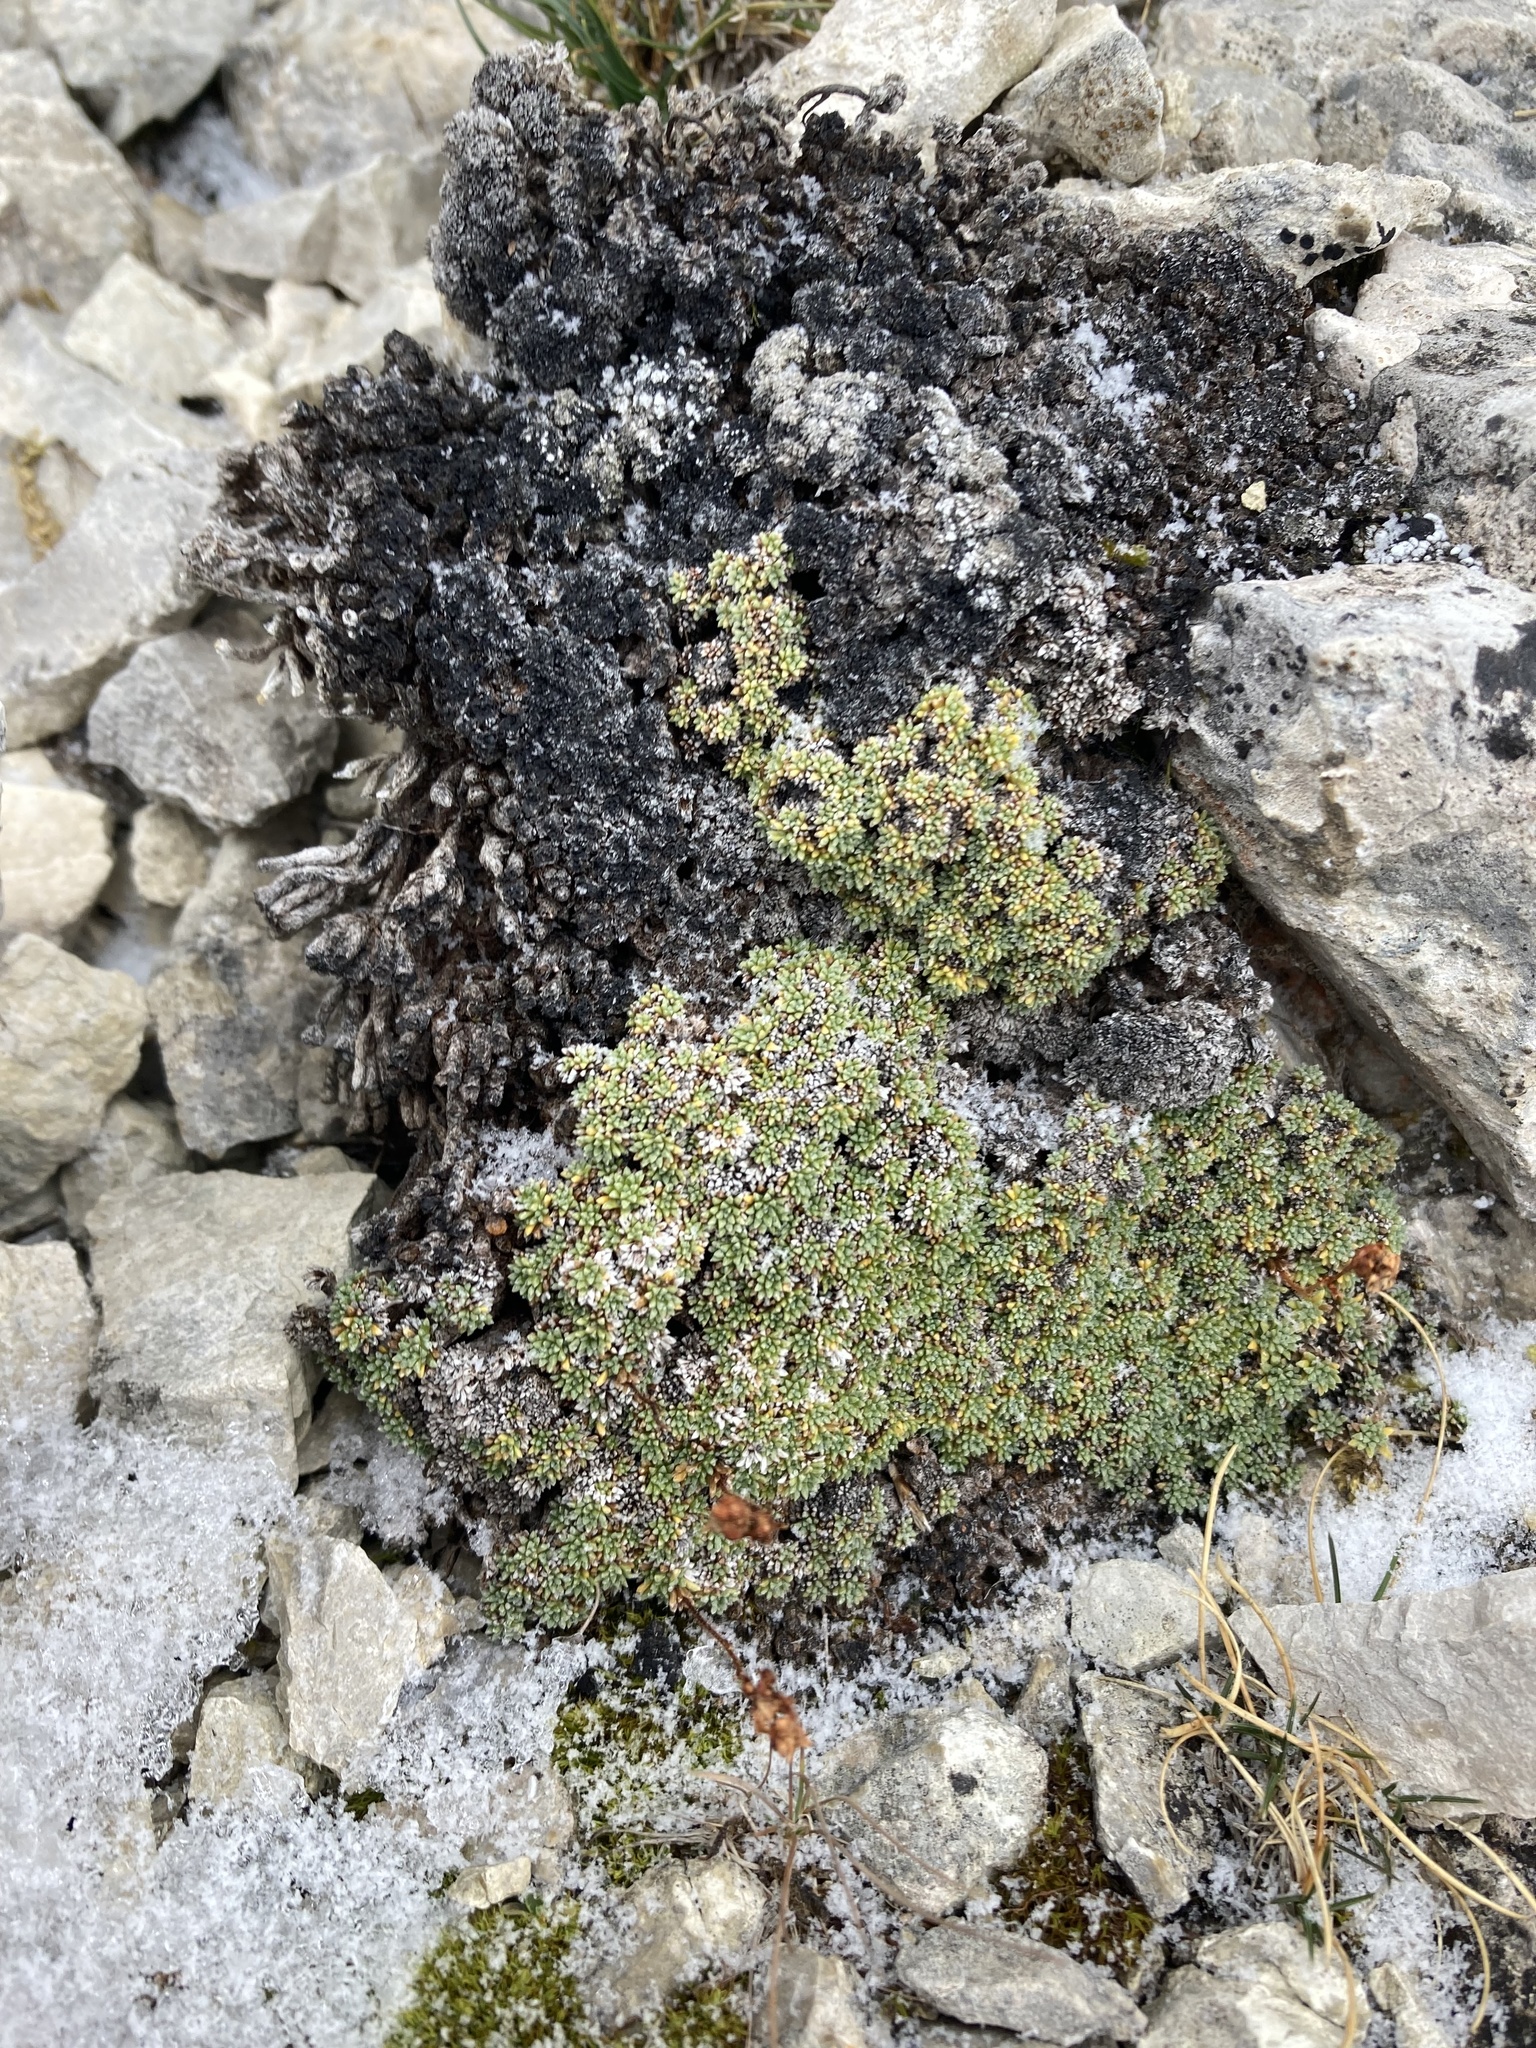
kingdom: Plantae
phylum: Tracheophyta
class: Magnoliopsida
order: Saxifragales
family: Saxifragaceae
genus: Saxifraga
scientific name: Saxifraga squarrosa
